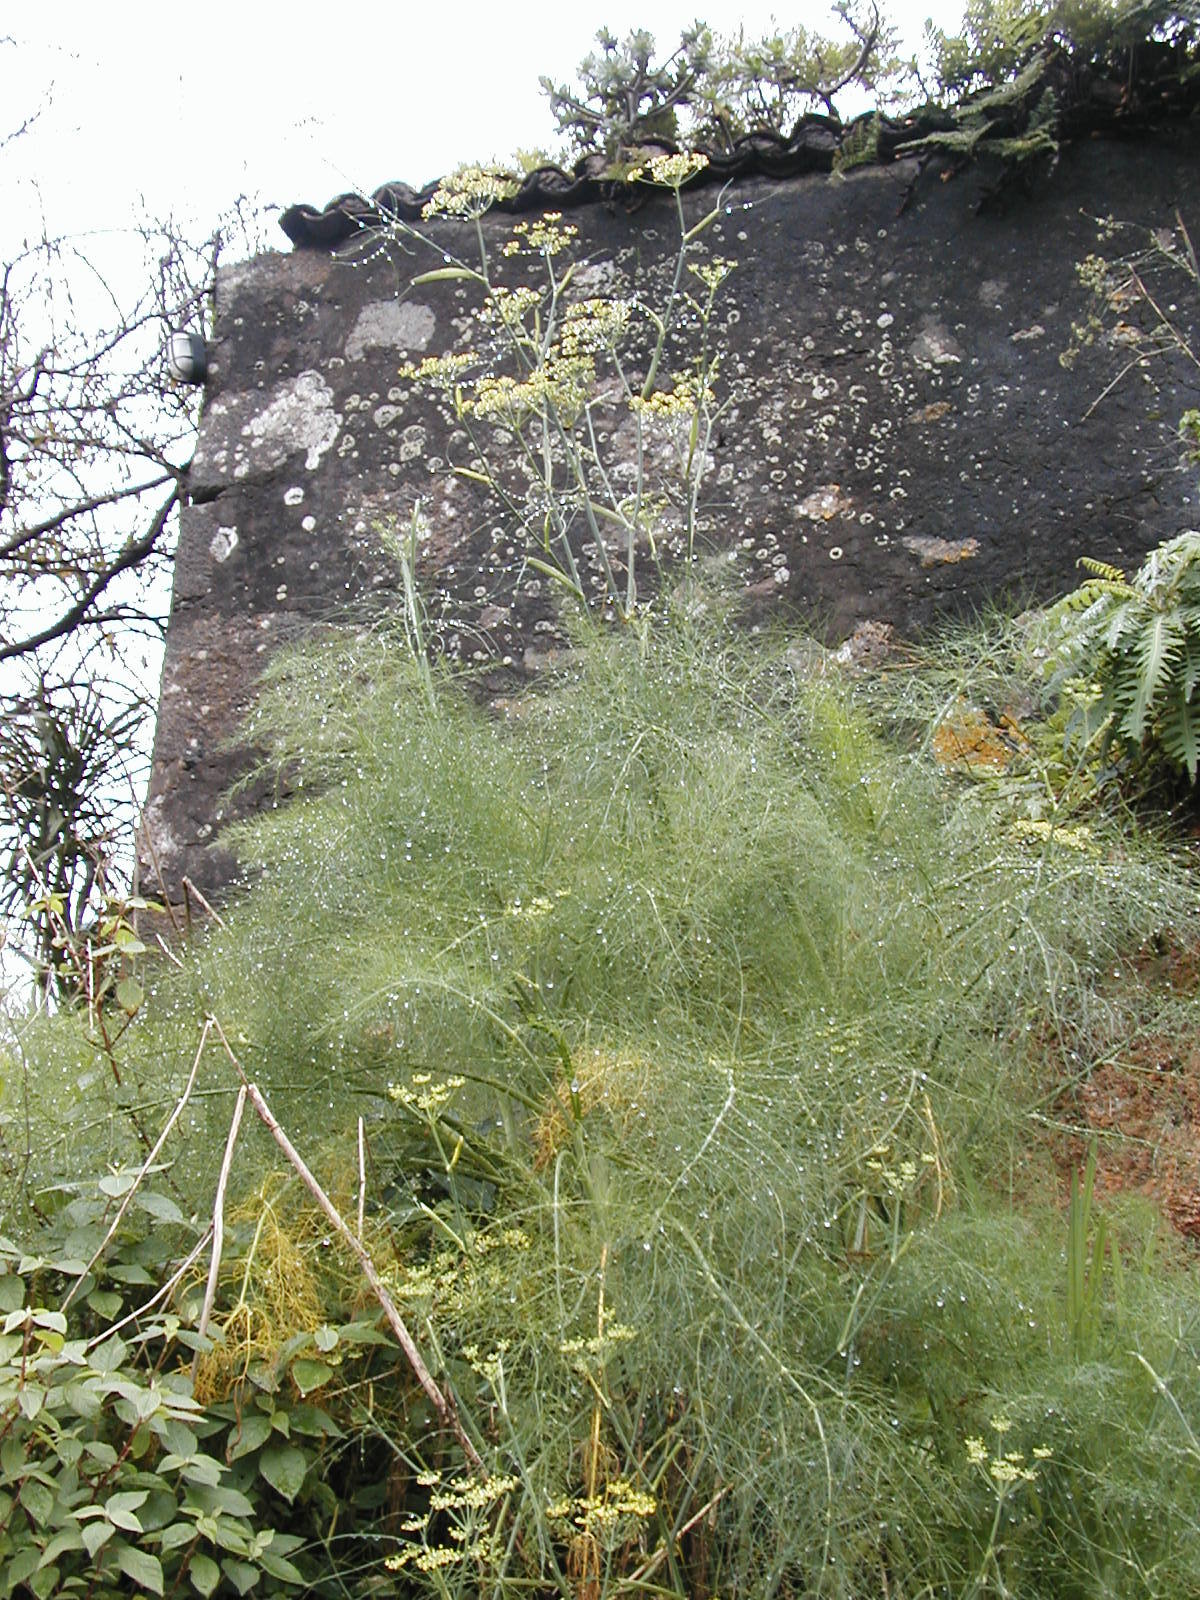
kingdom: Plantae
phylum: Tracheophyta
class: Magnoliopsida
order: Apiales
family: Apiaceae
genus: Foeniculum
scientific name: Foeniculum vulgare
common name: Fennel
